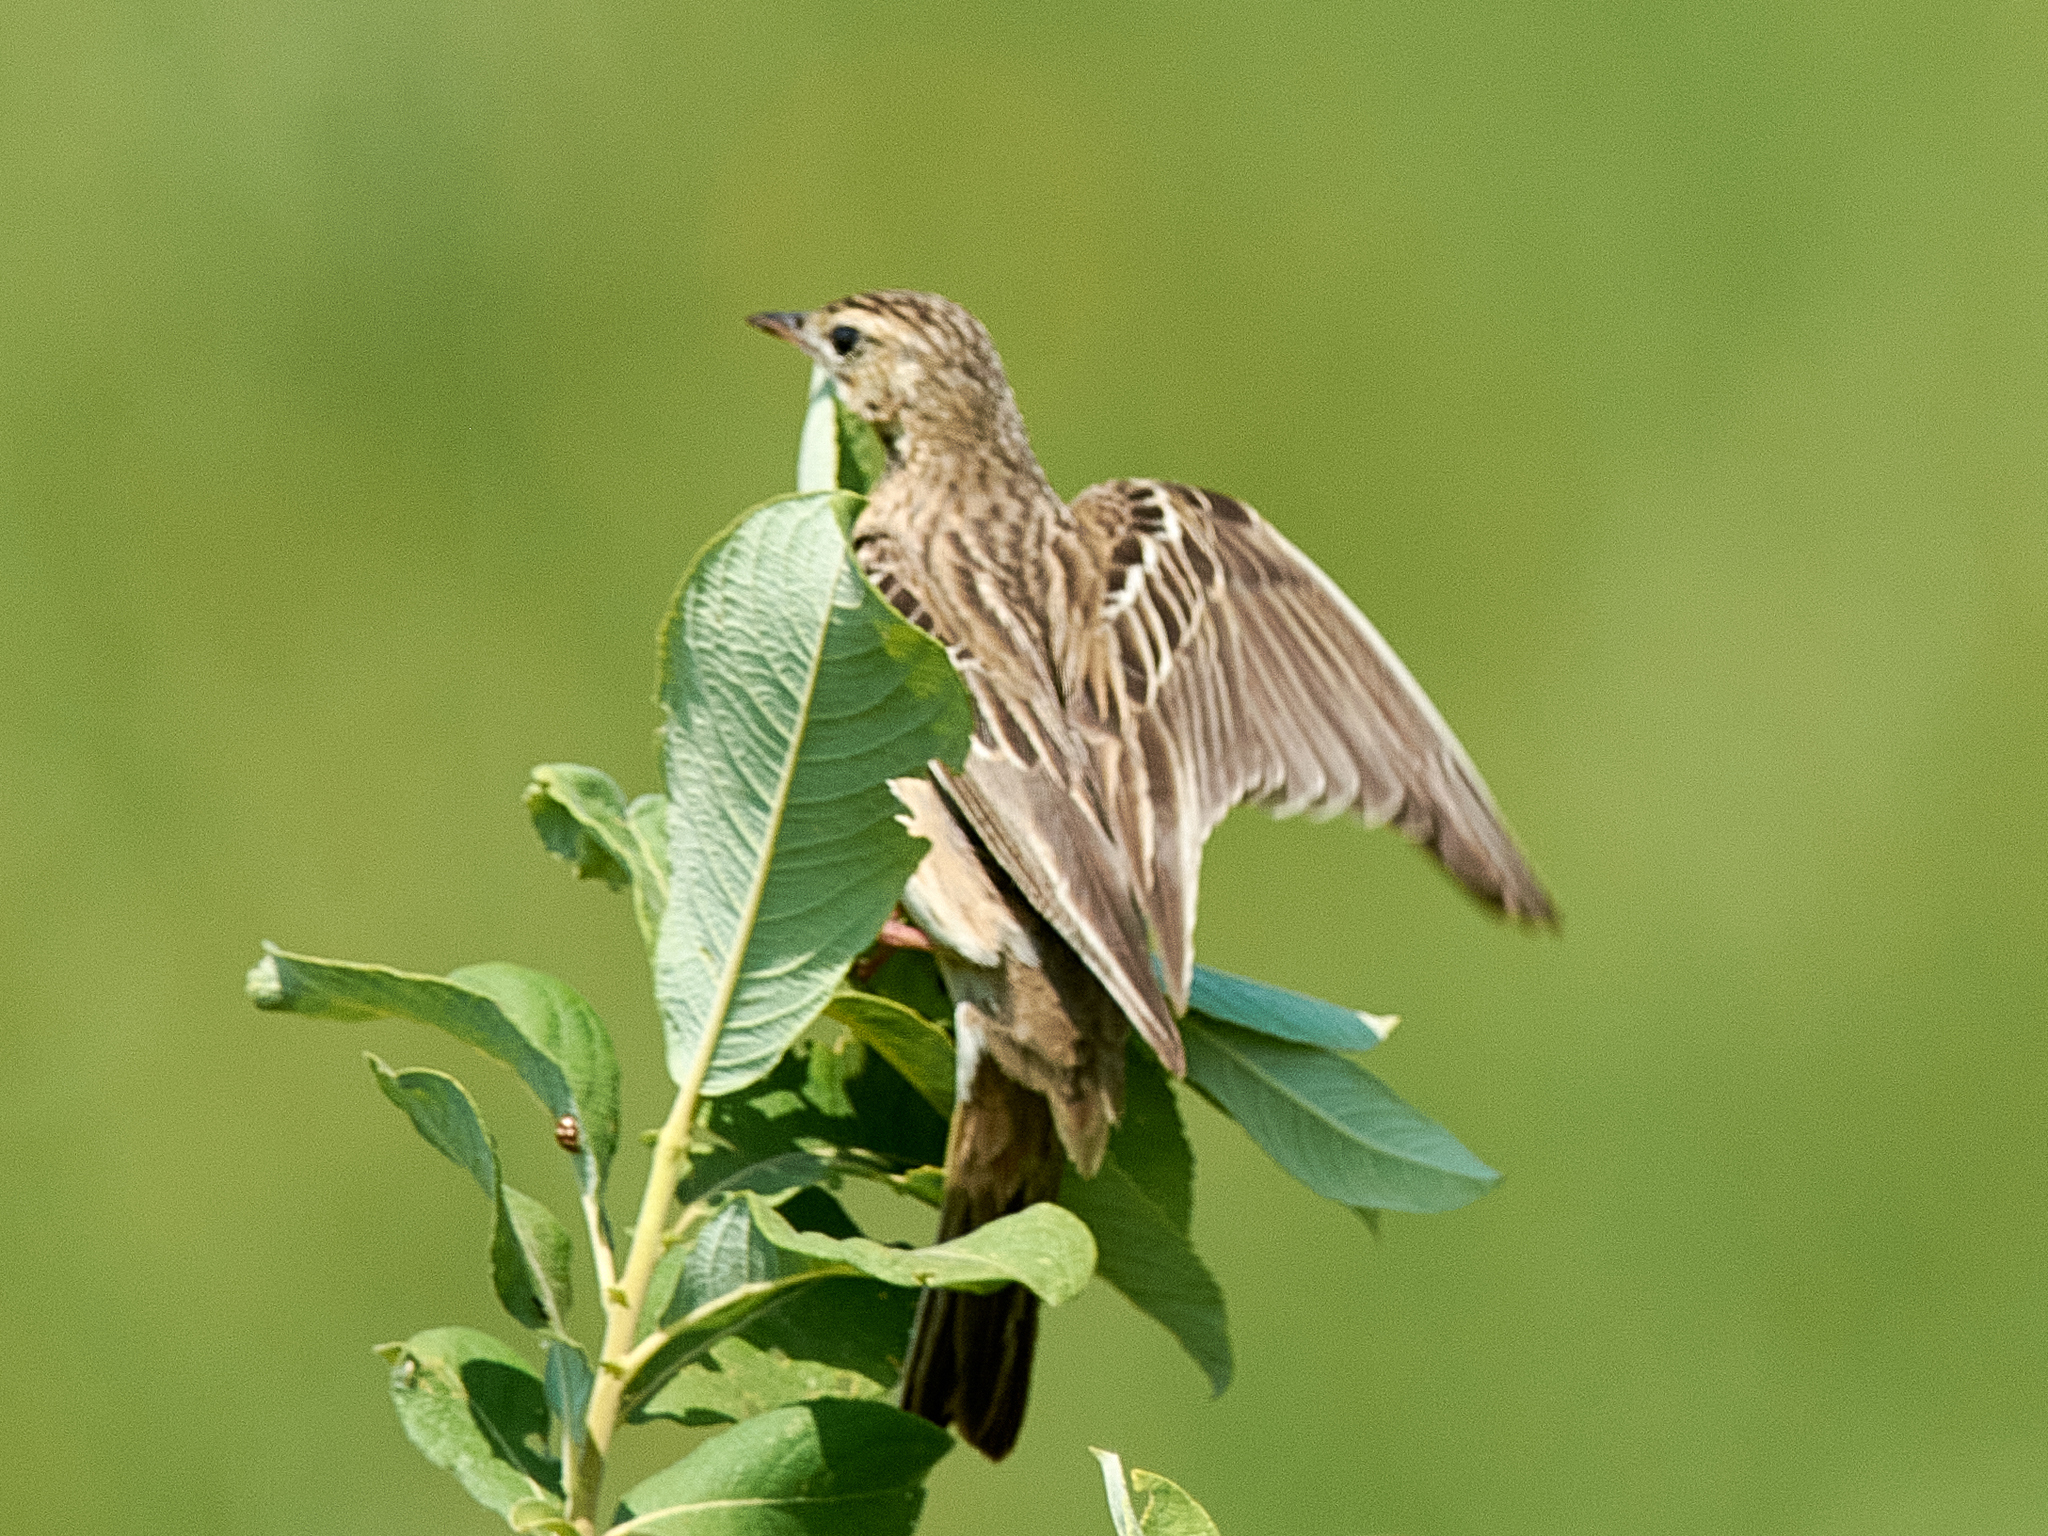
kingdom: Animalia
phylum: Chordata
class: Aves
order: Passeriformes
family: Motacillidae
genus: Anthus
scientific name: Anthus trivialis
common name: Tree pipit
